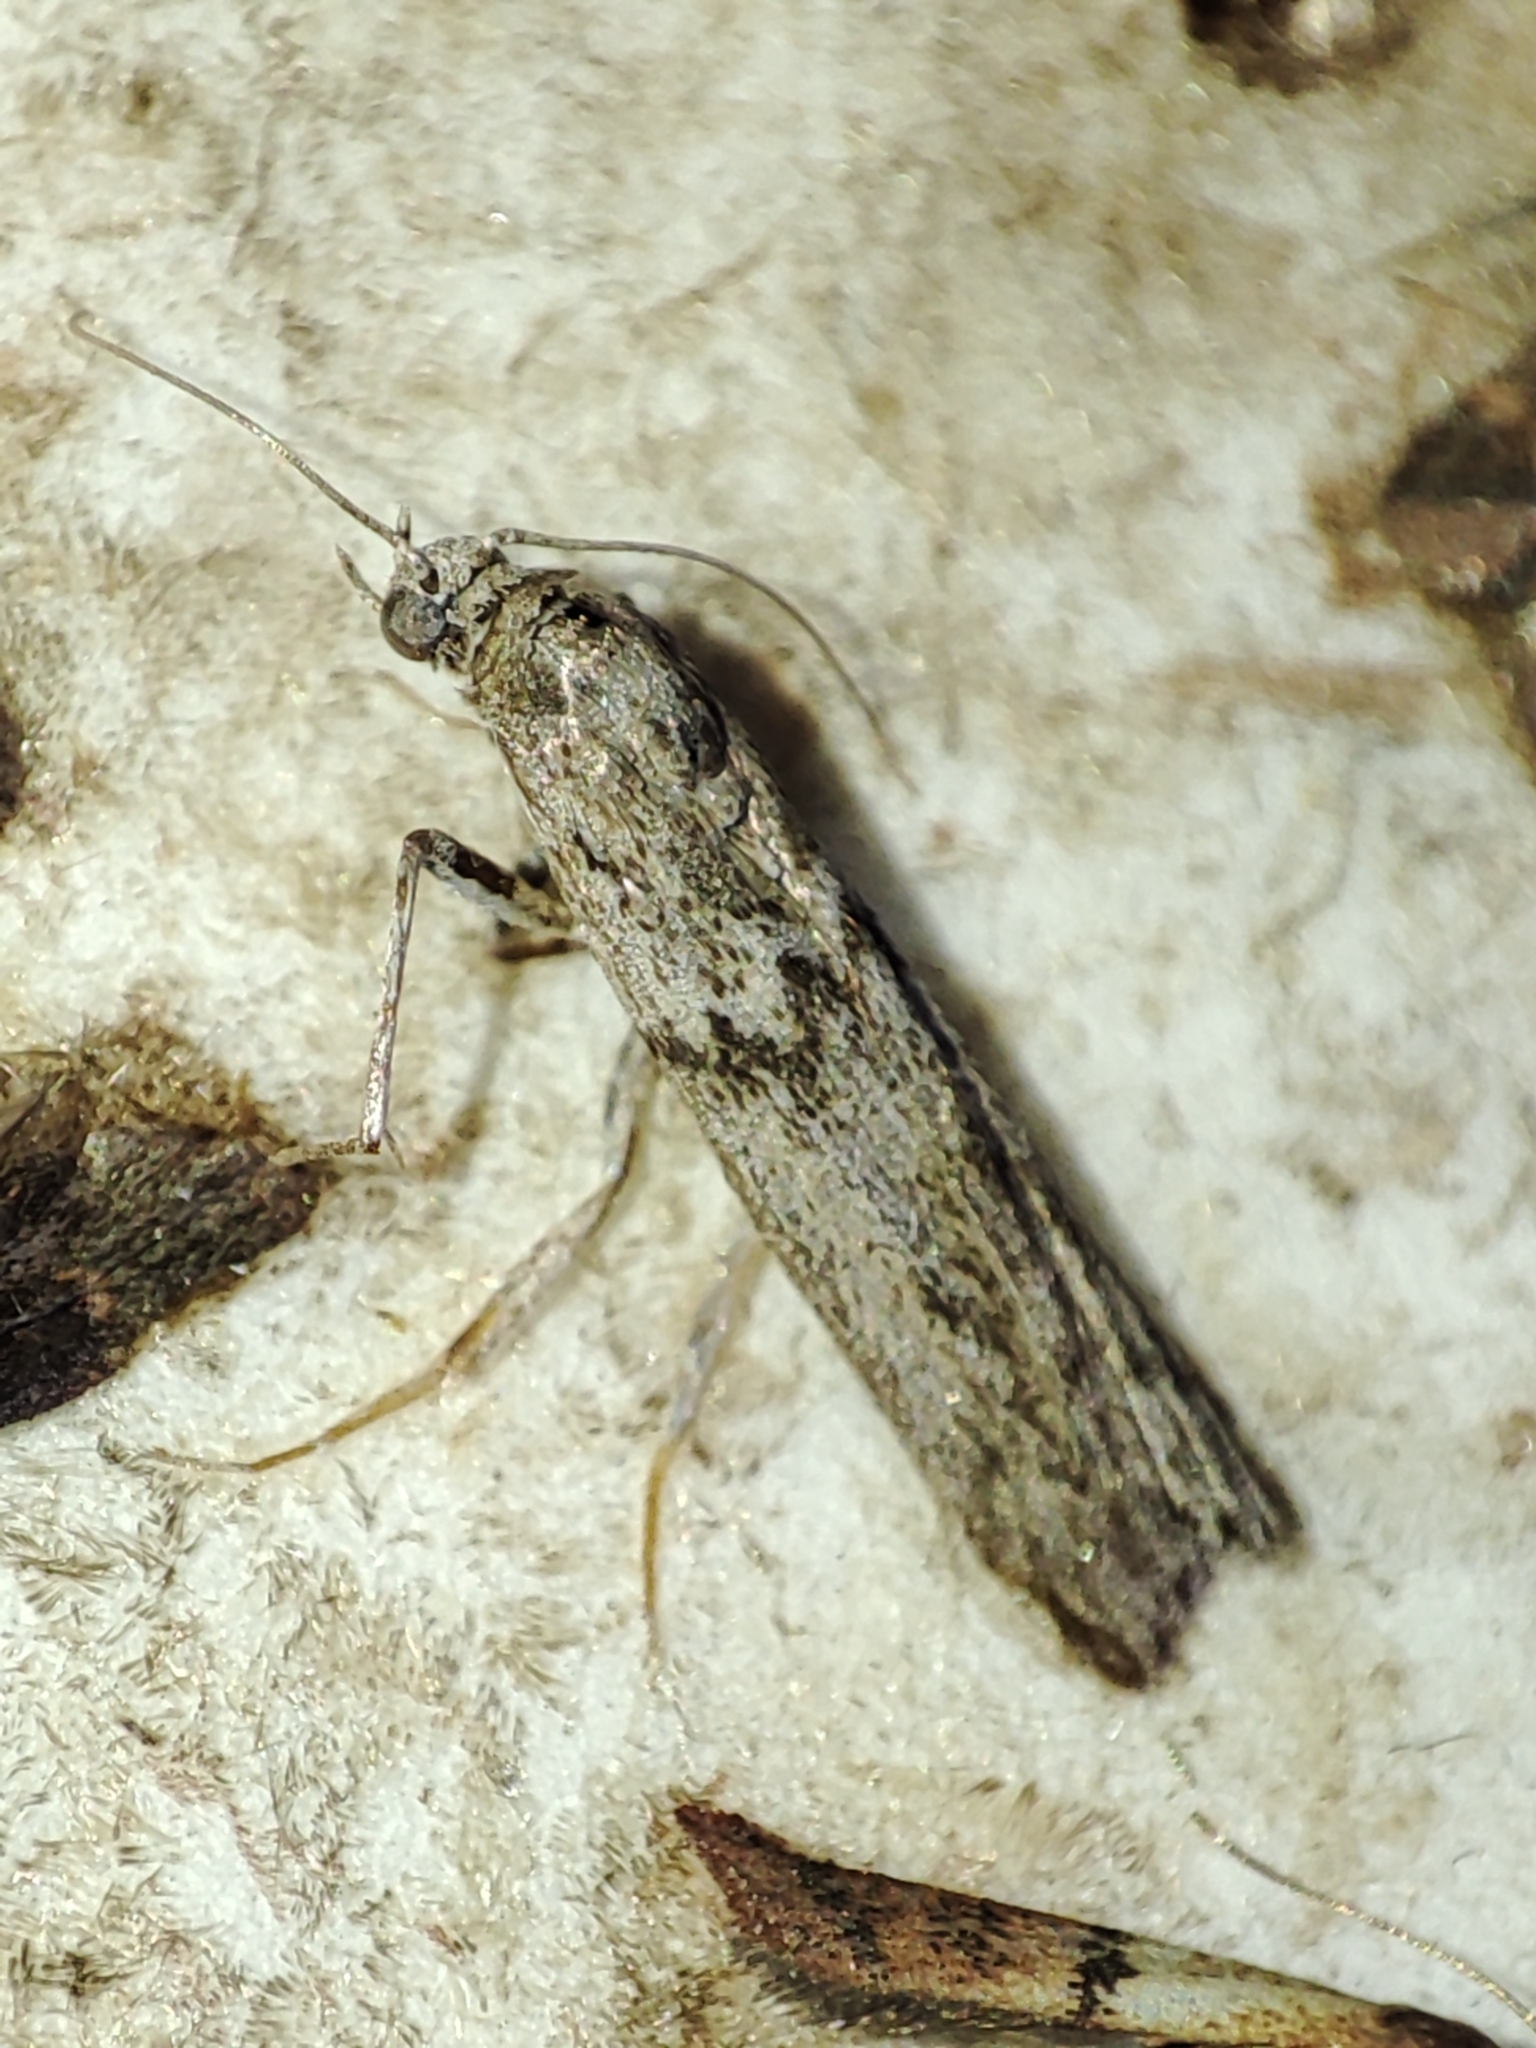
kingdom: Animalia
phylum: Arthropoda
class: Insecta
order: Lepidoptera
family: Pyralidae
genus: Ephestia
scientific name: Ephestia kuehniella
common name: Mediterranean flour moth
